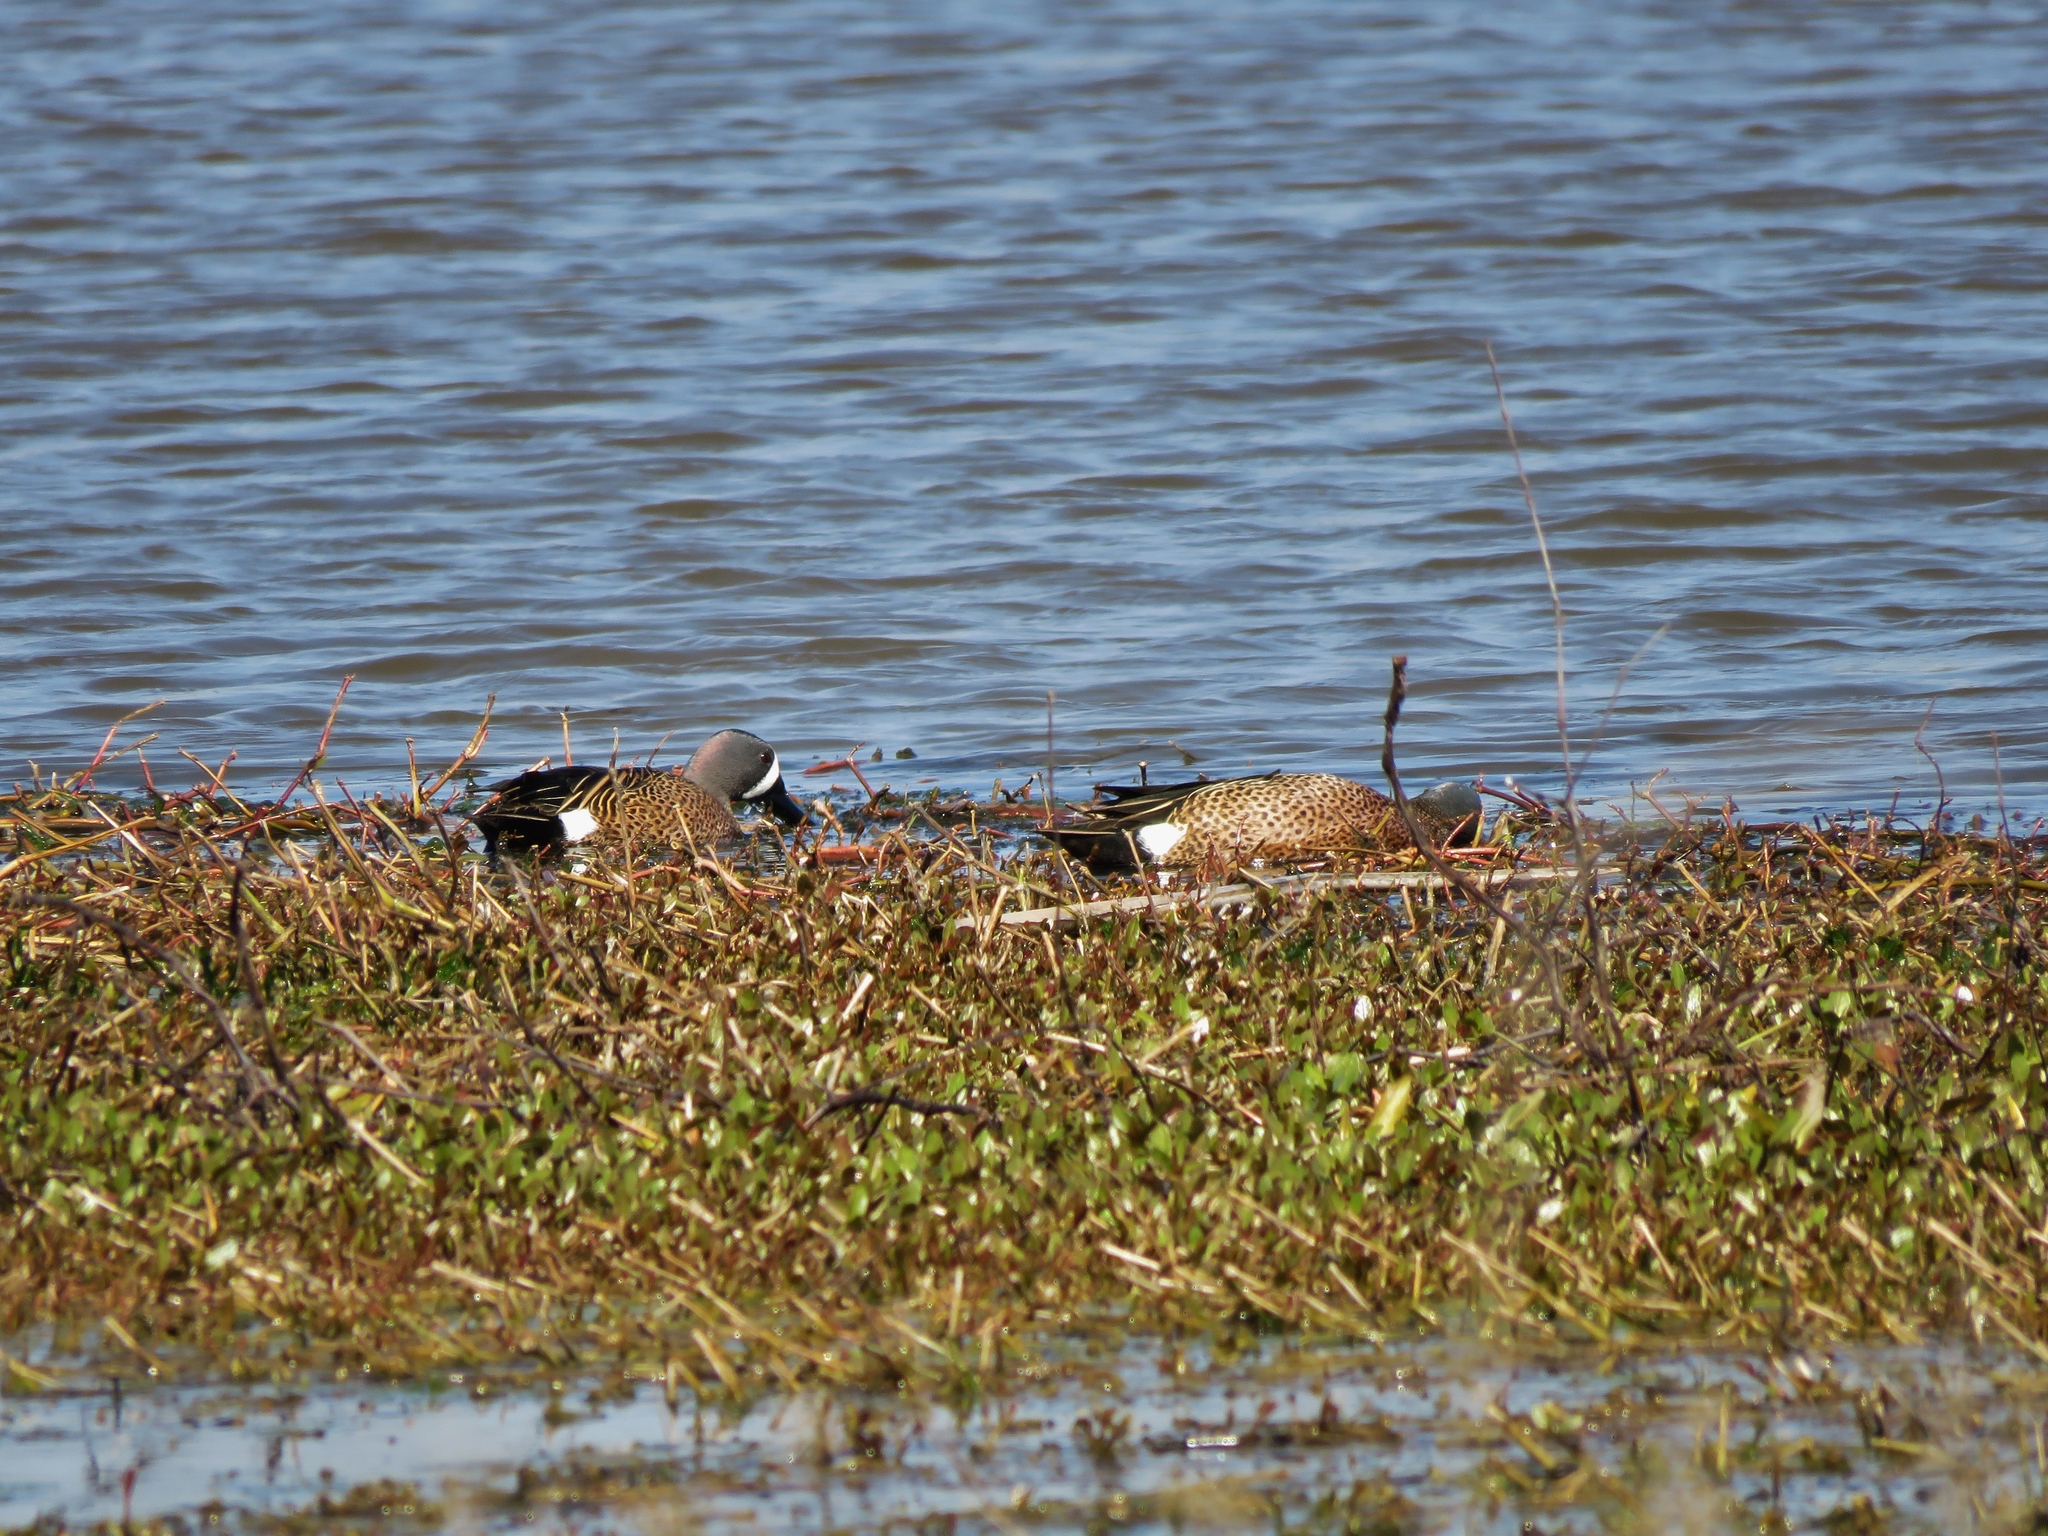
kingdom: Animalia
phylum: Chordata
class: Aves
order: Anseriformes
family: Anatidae
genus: Spatula
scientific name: Spatula discors
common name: Blue-winged teal
